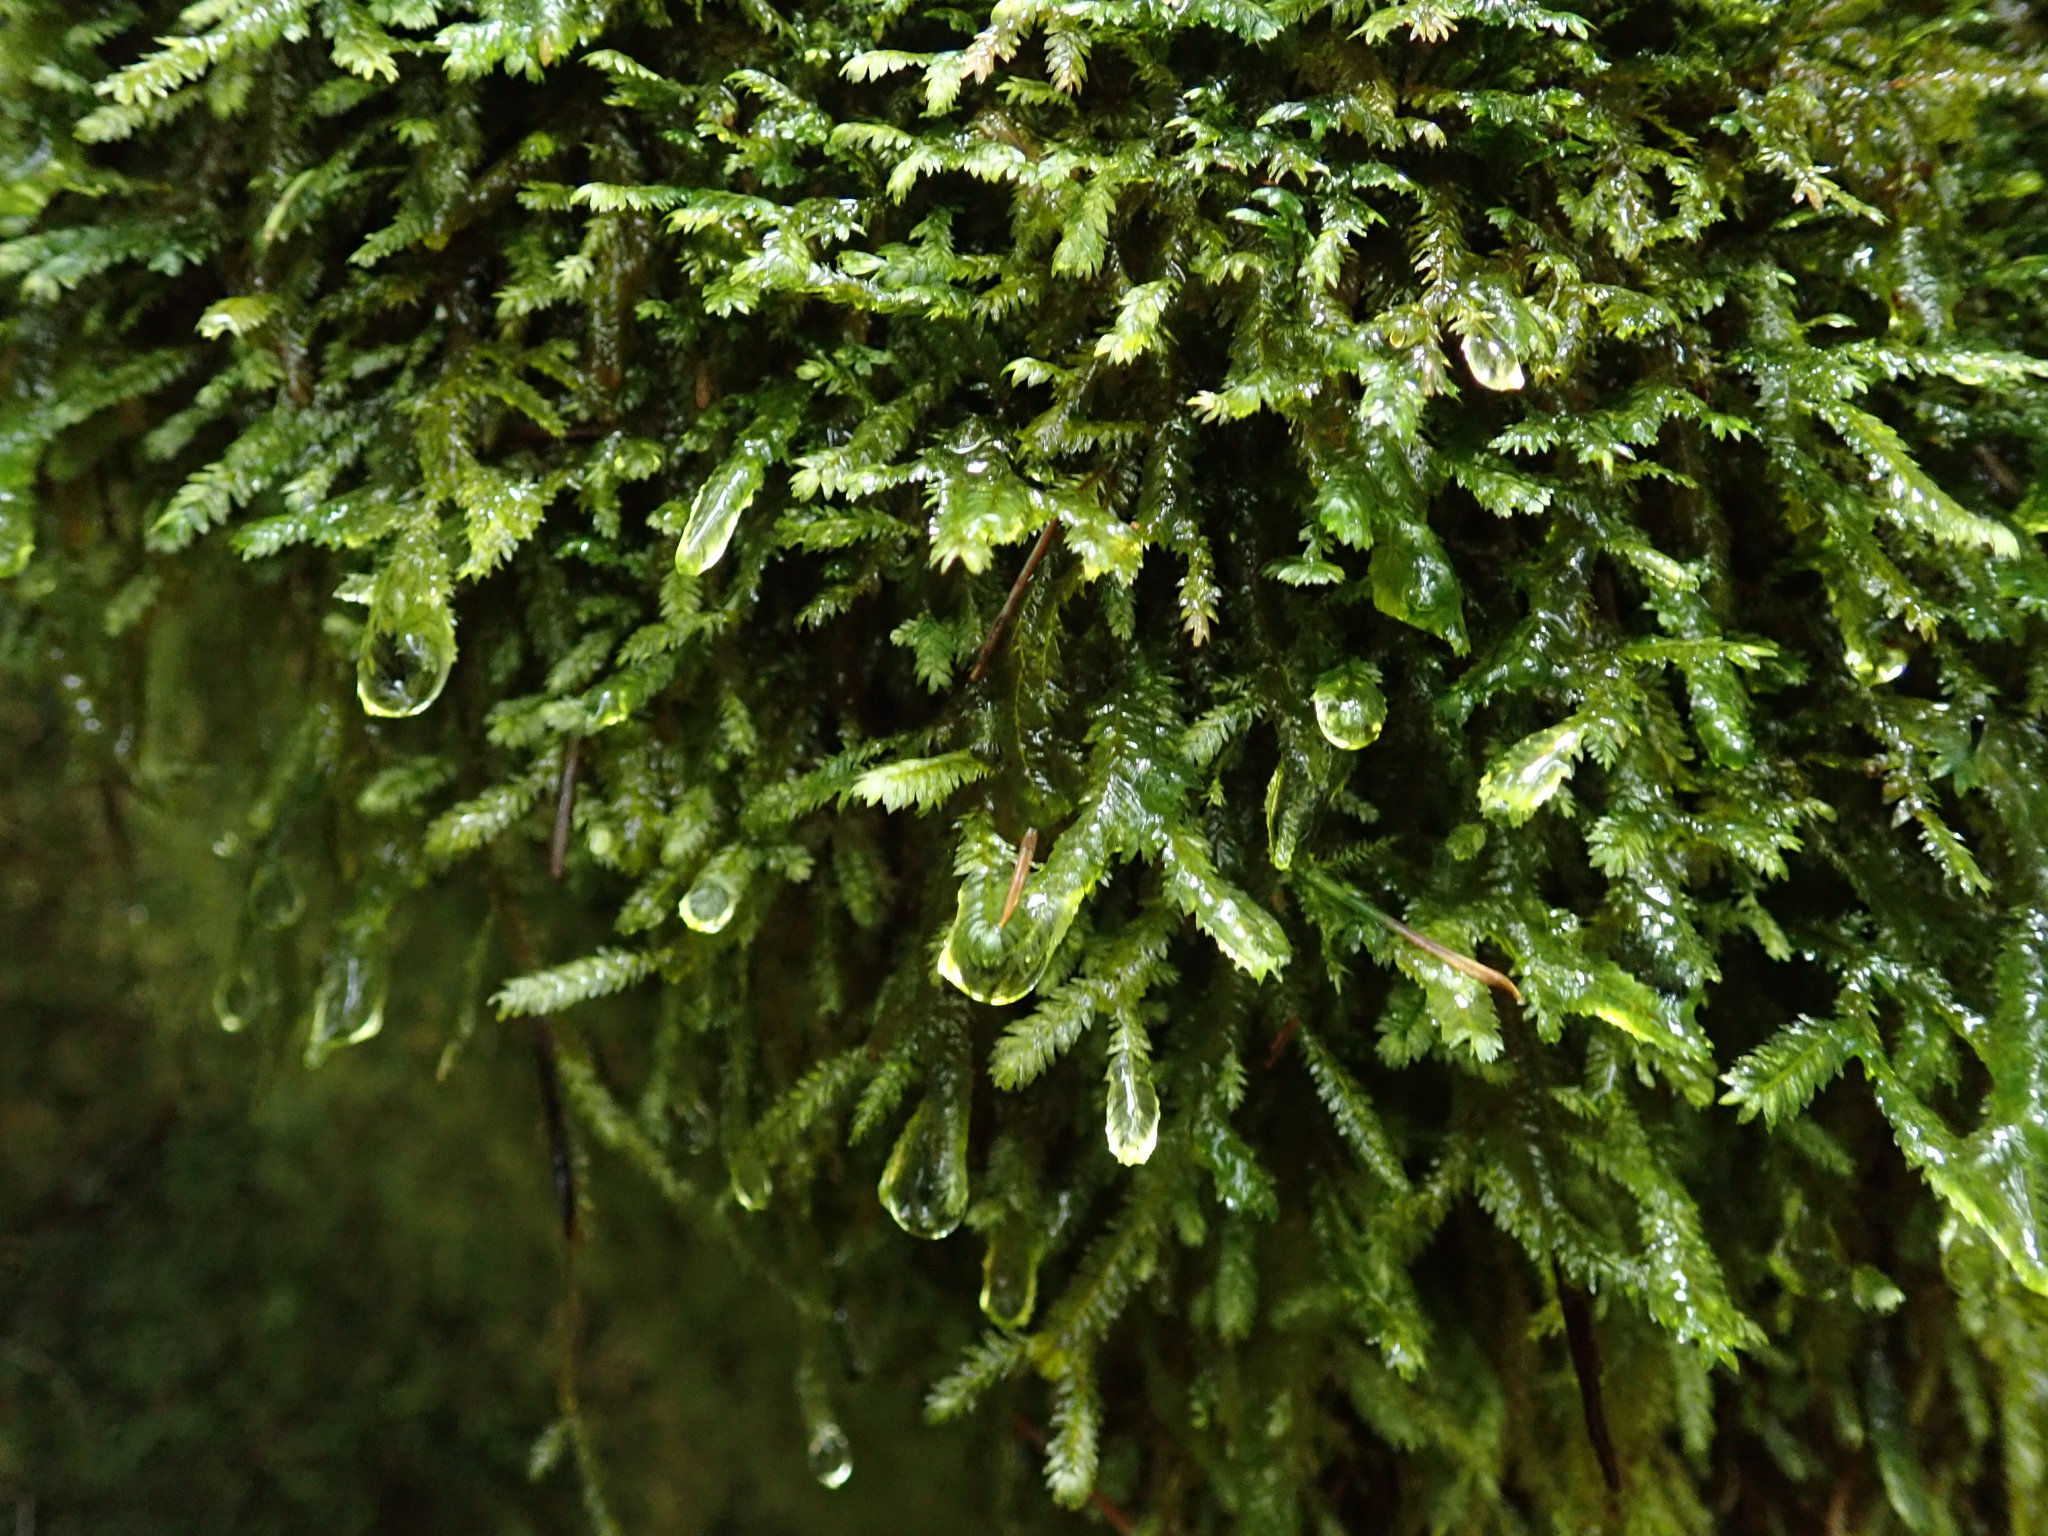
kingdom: Plantae
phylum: Bryophyta
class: Bryopsida
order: Hypnales
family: Neckeraceae
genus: Dannorrisia
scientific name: Dannorrisia bigelovii
